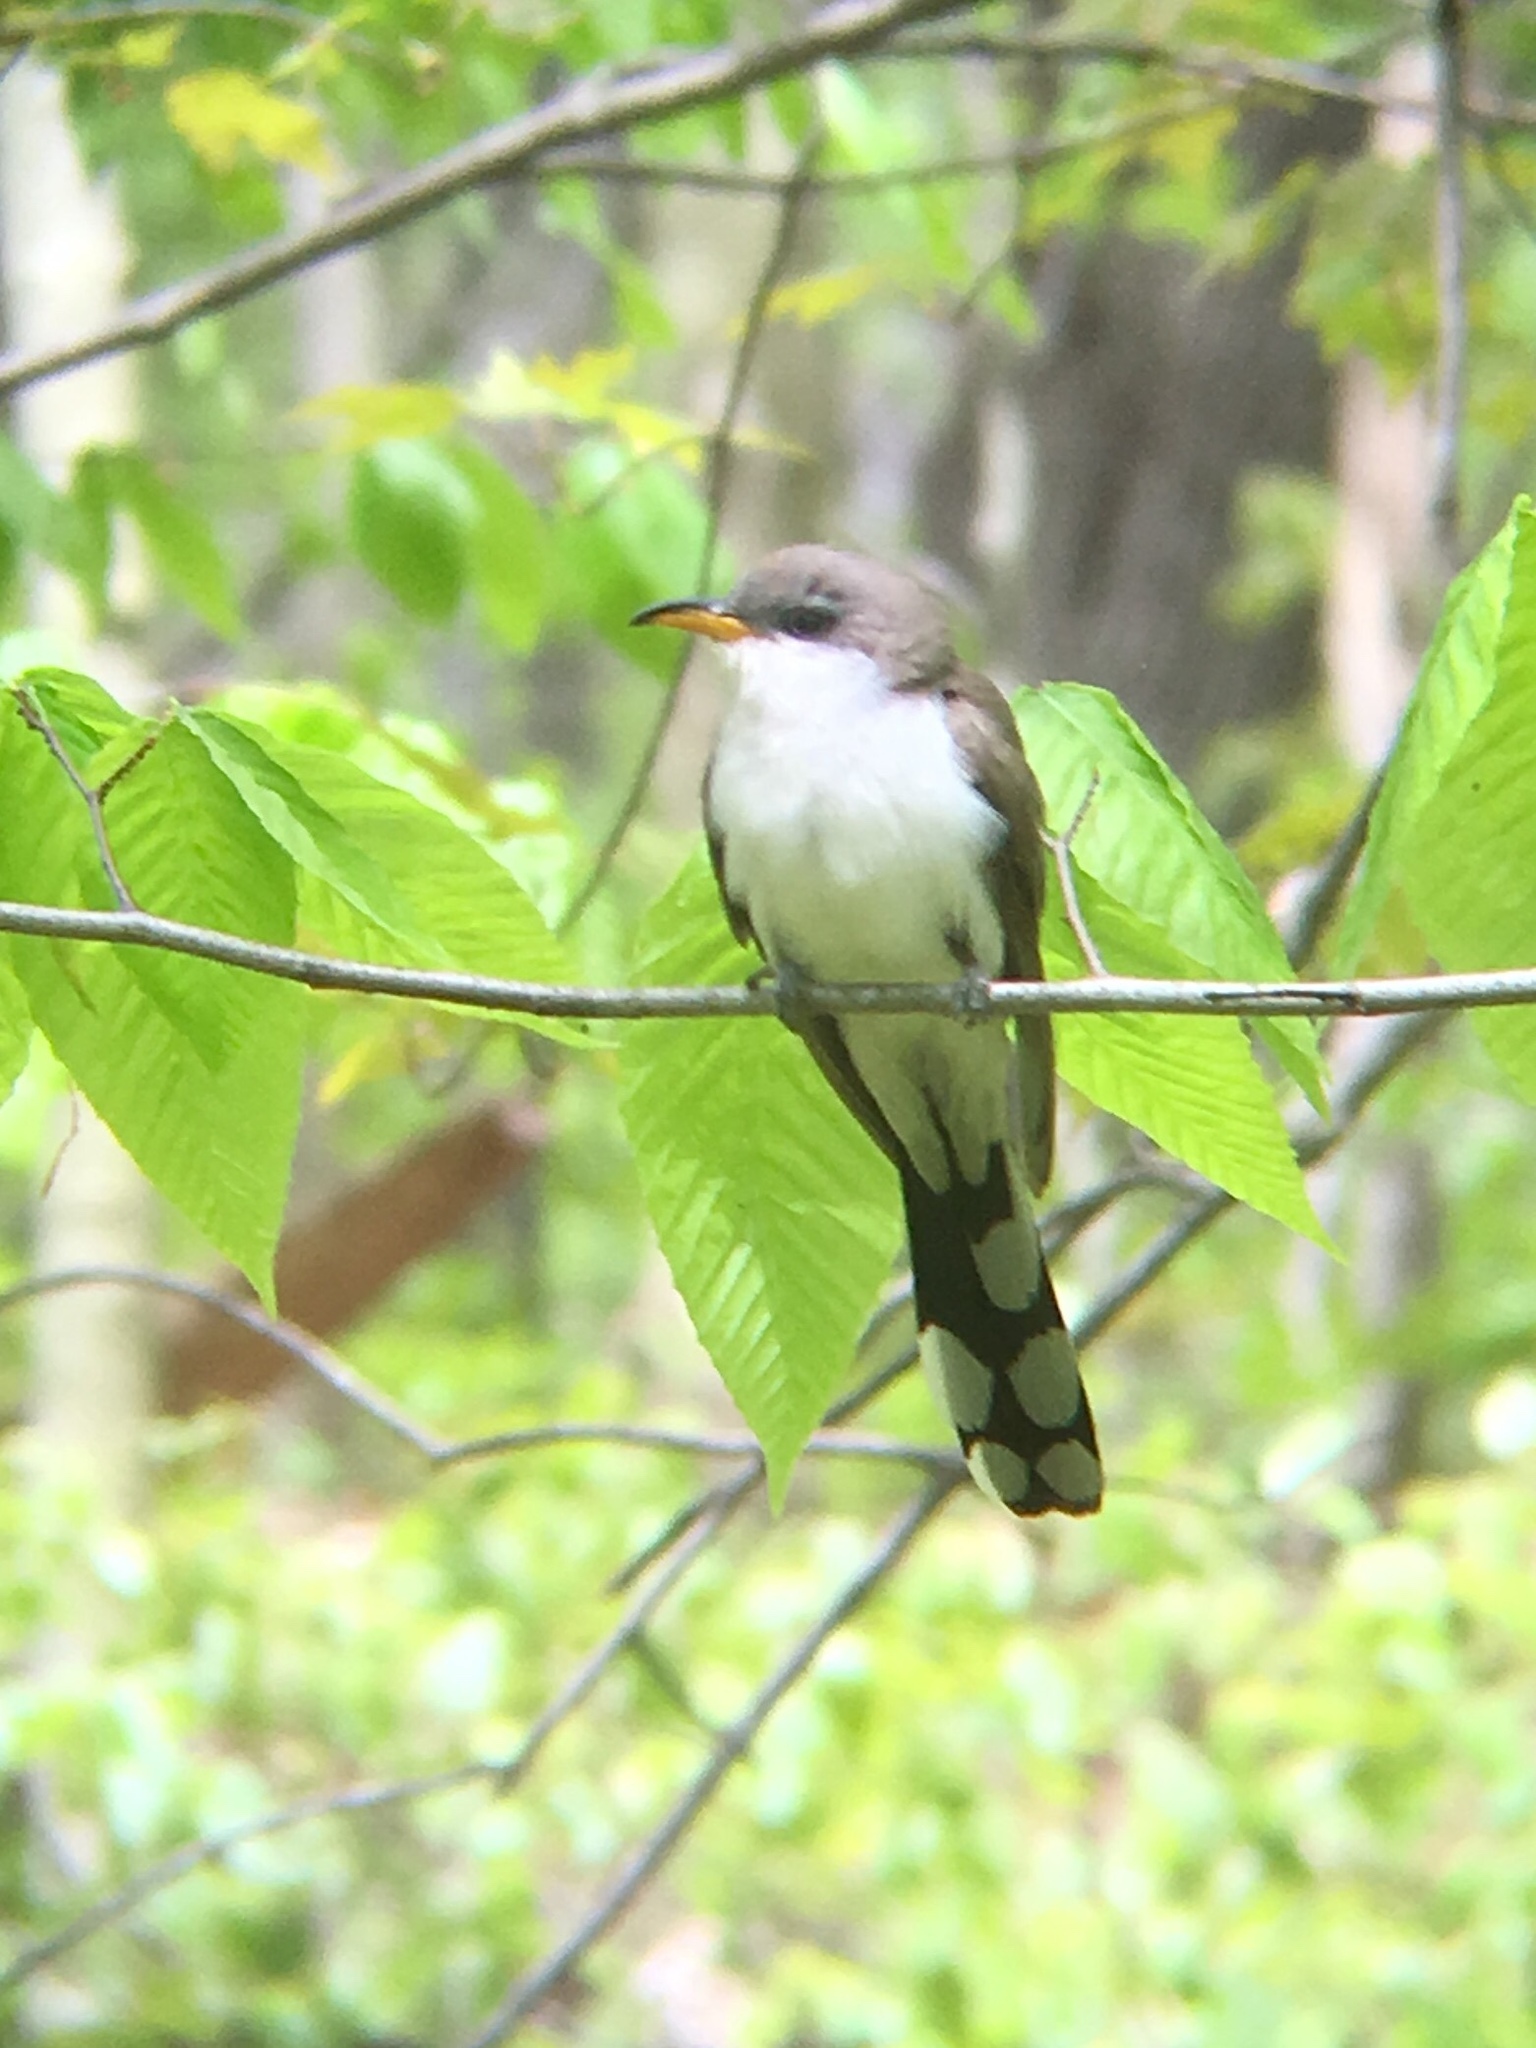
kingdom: Animalia
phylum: Chordata
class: Aves
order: Cuculiformes
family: Cuculidae
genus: Coccyzus
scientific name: Coccyzus americanus
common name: Yellow-billed cuckoo
